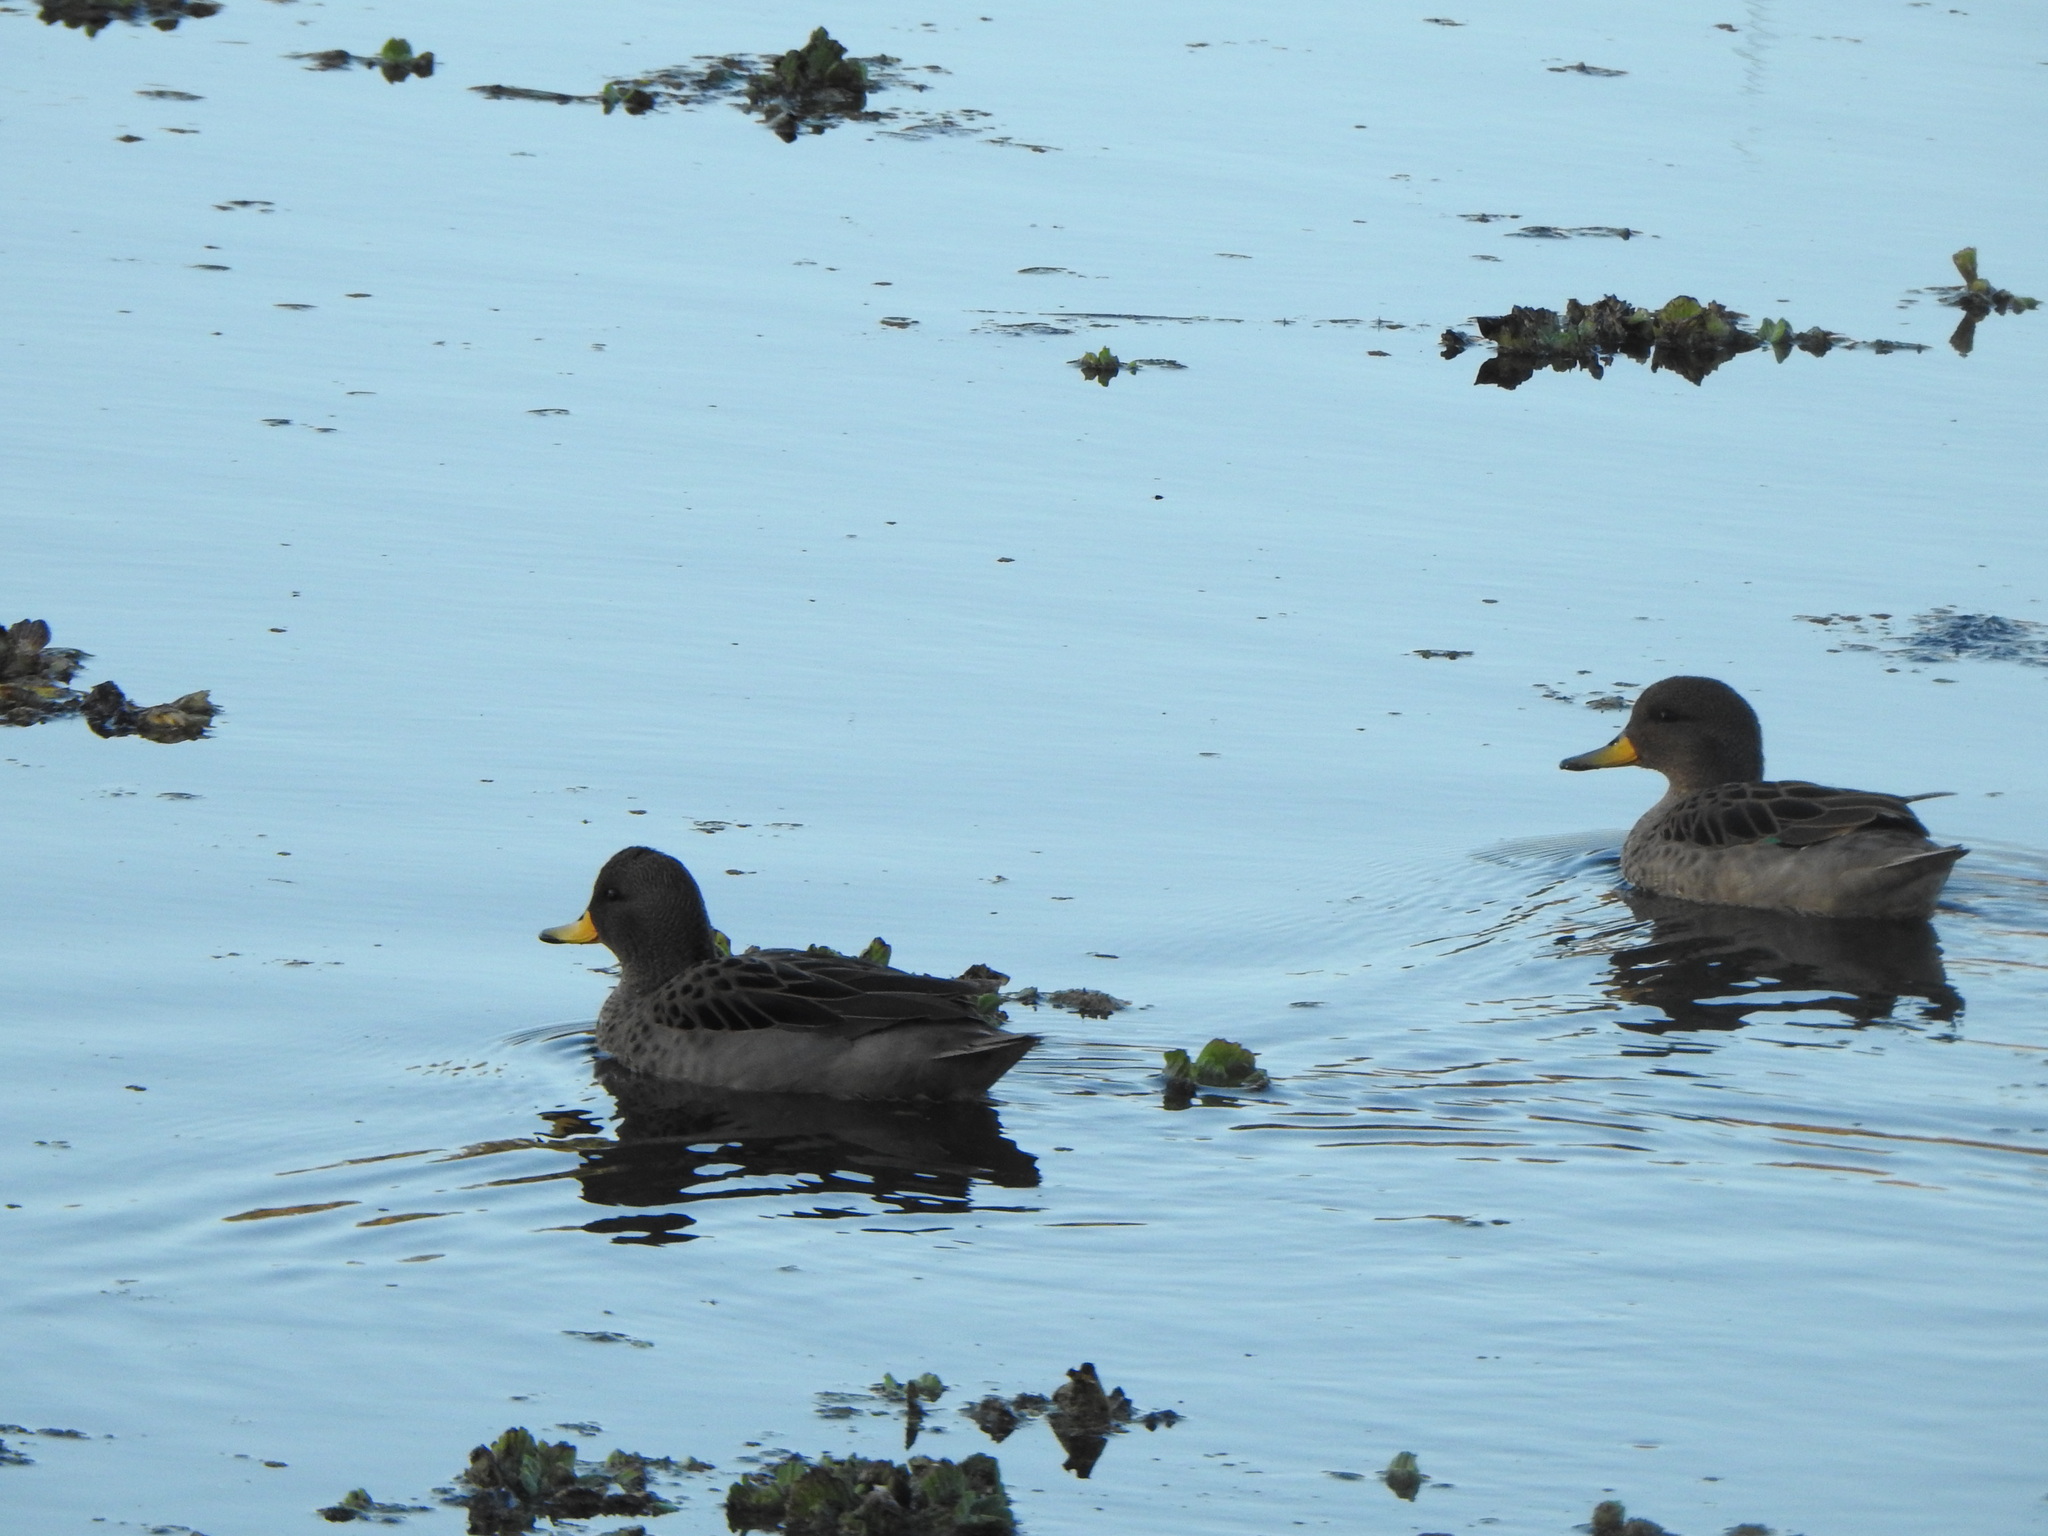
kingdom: Animalia
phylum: Chordata
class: Aves
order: Anseriformes
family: Anatidae
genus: Anas
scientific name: Anas flavirostris
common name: Yellow-billed teal
